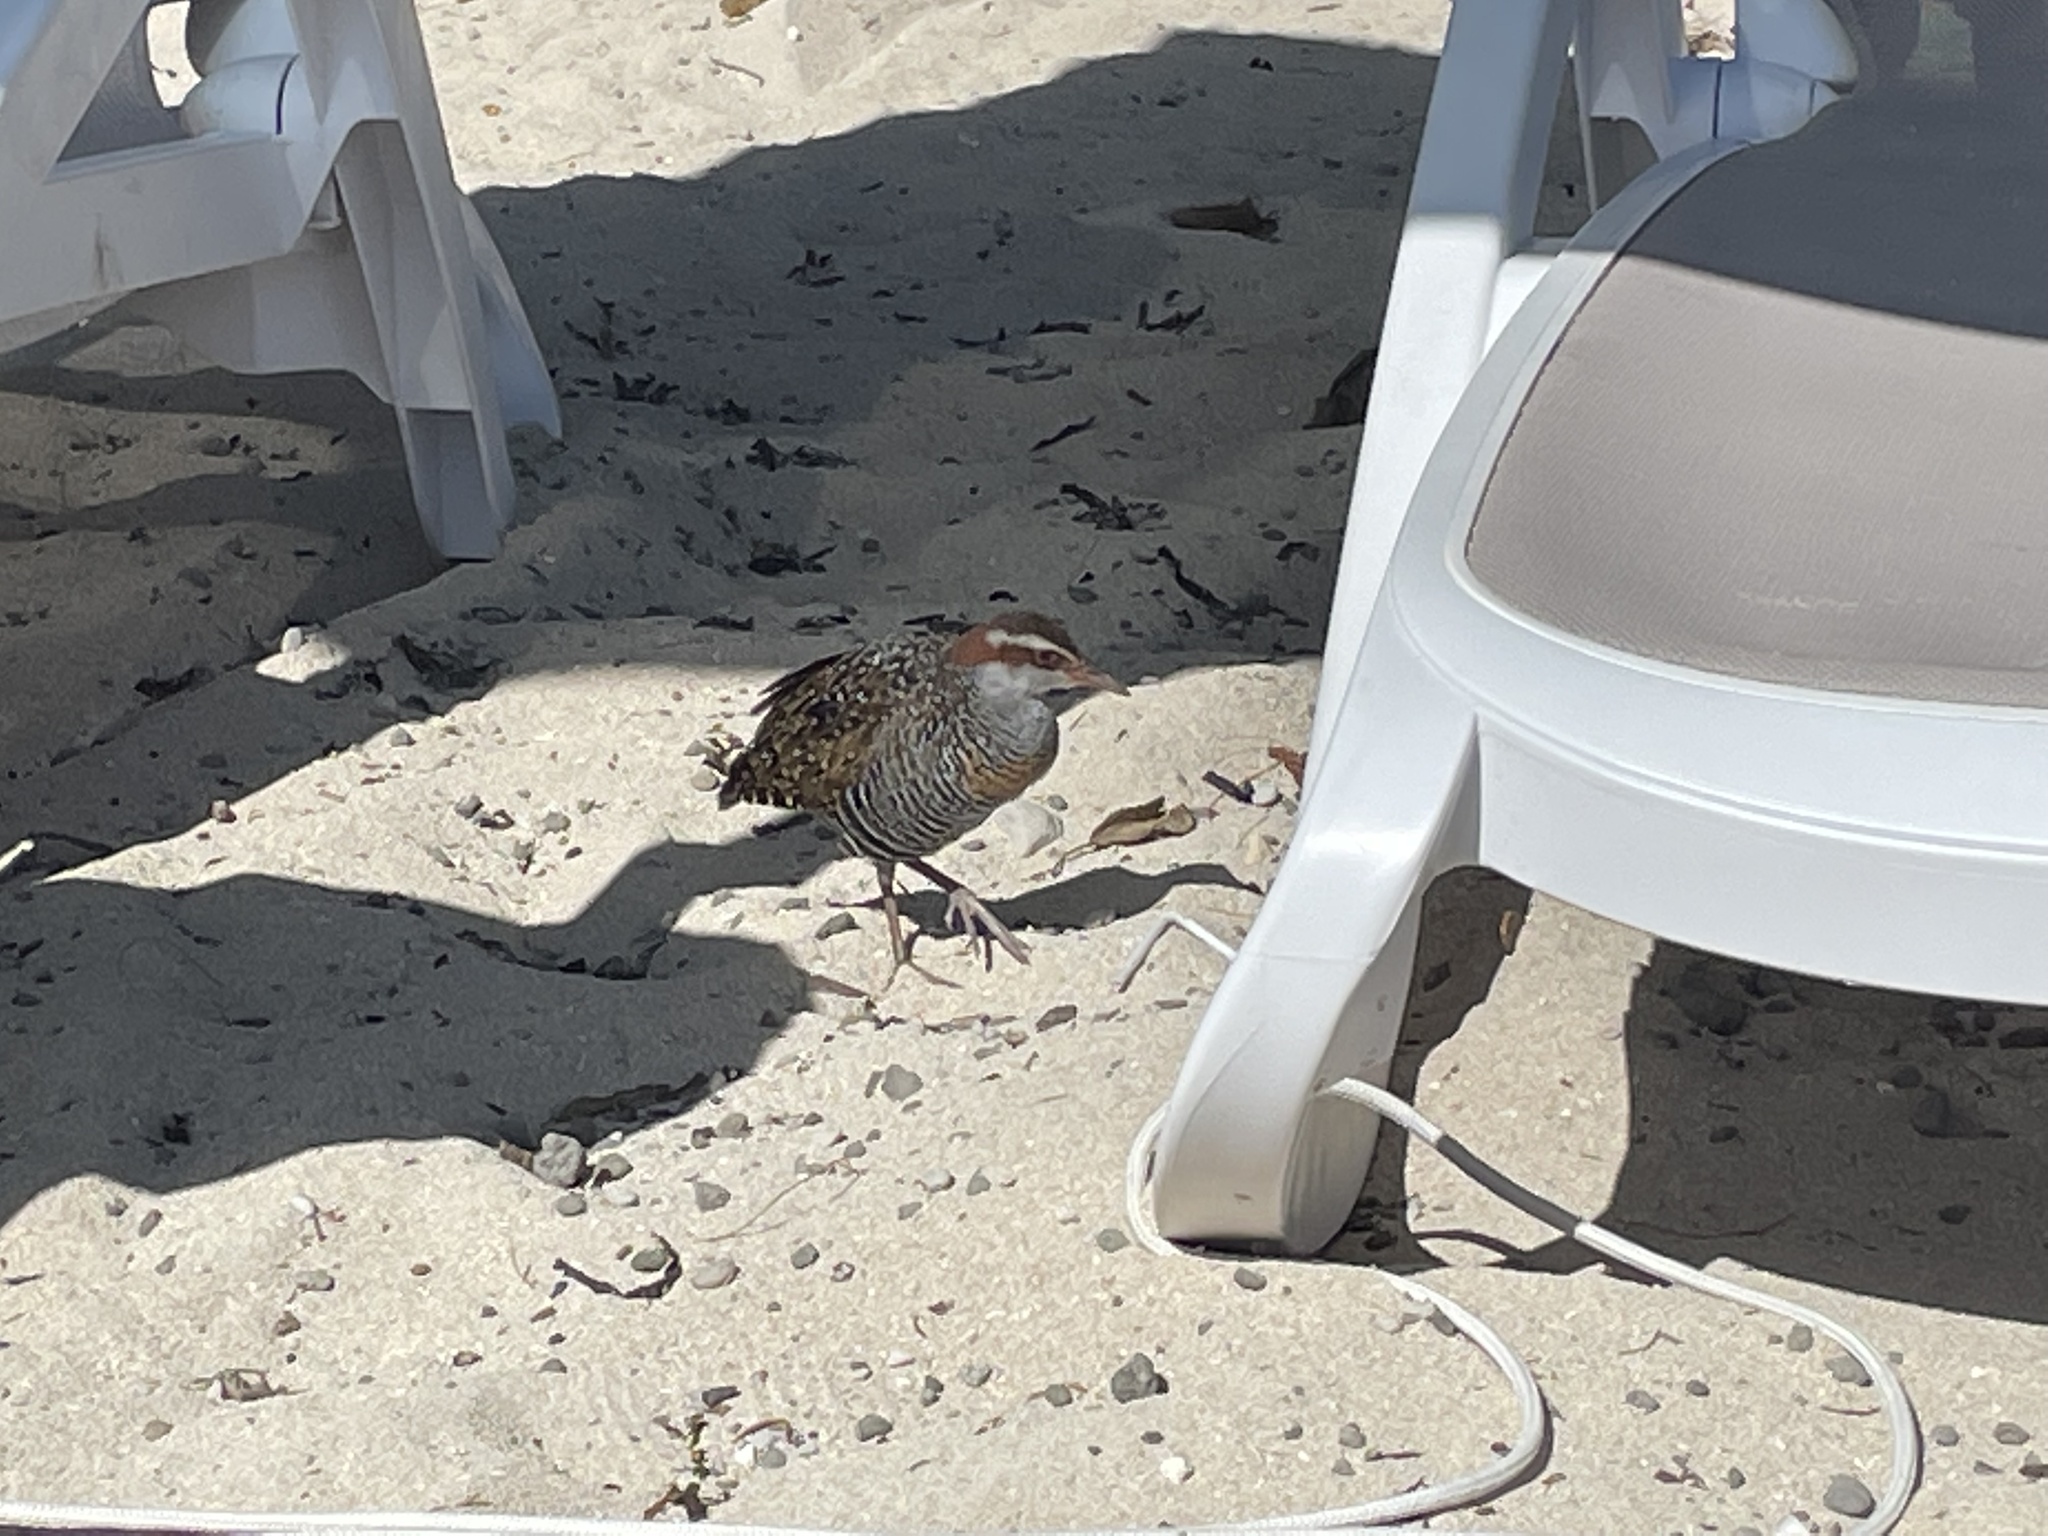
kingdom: Animalia
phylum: Chordata
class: Aves
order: Gruiformes
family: Rallidae
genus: Gallirallus
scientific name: Gallirallus philippensis
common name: Buff-banded rail
